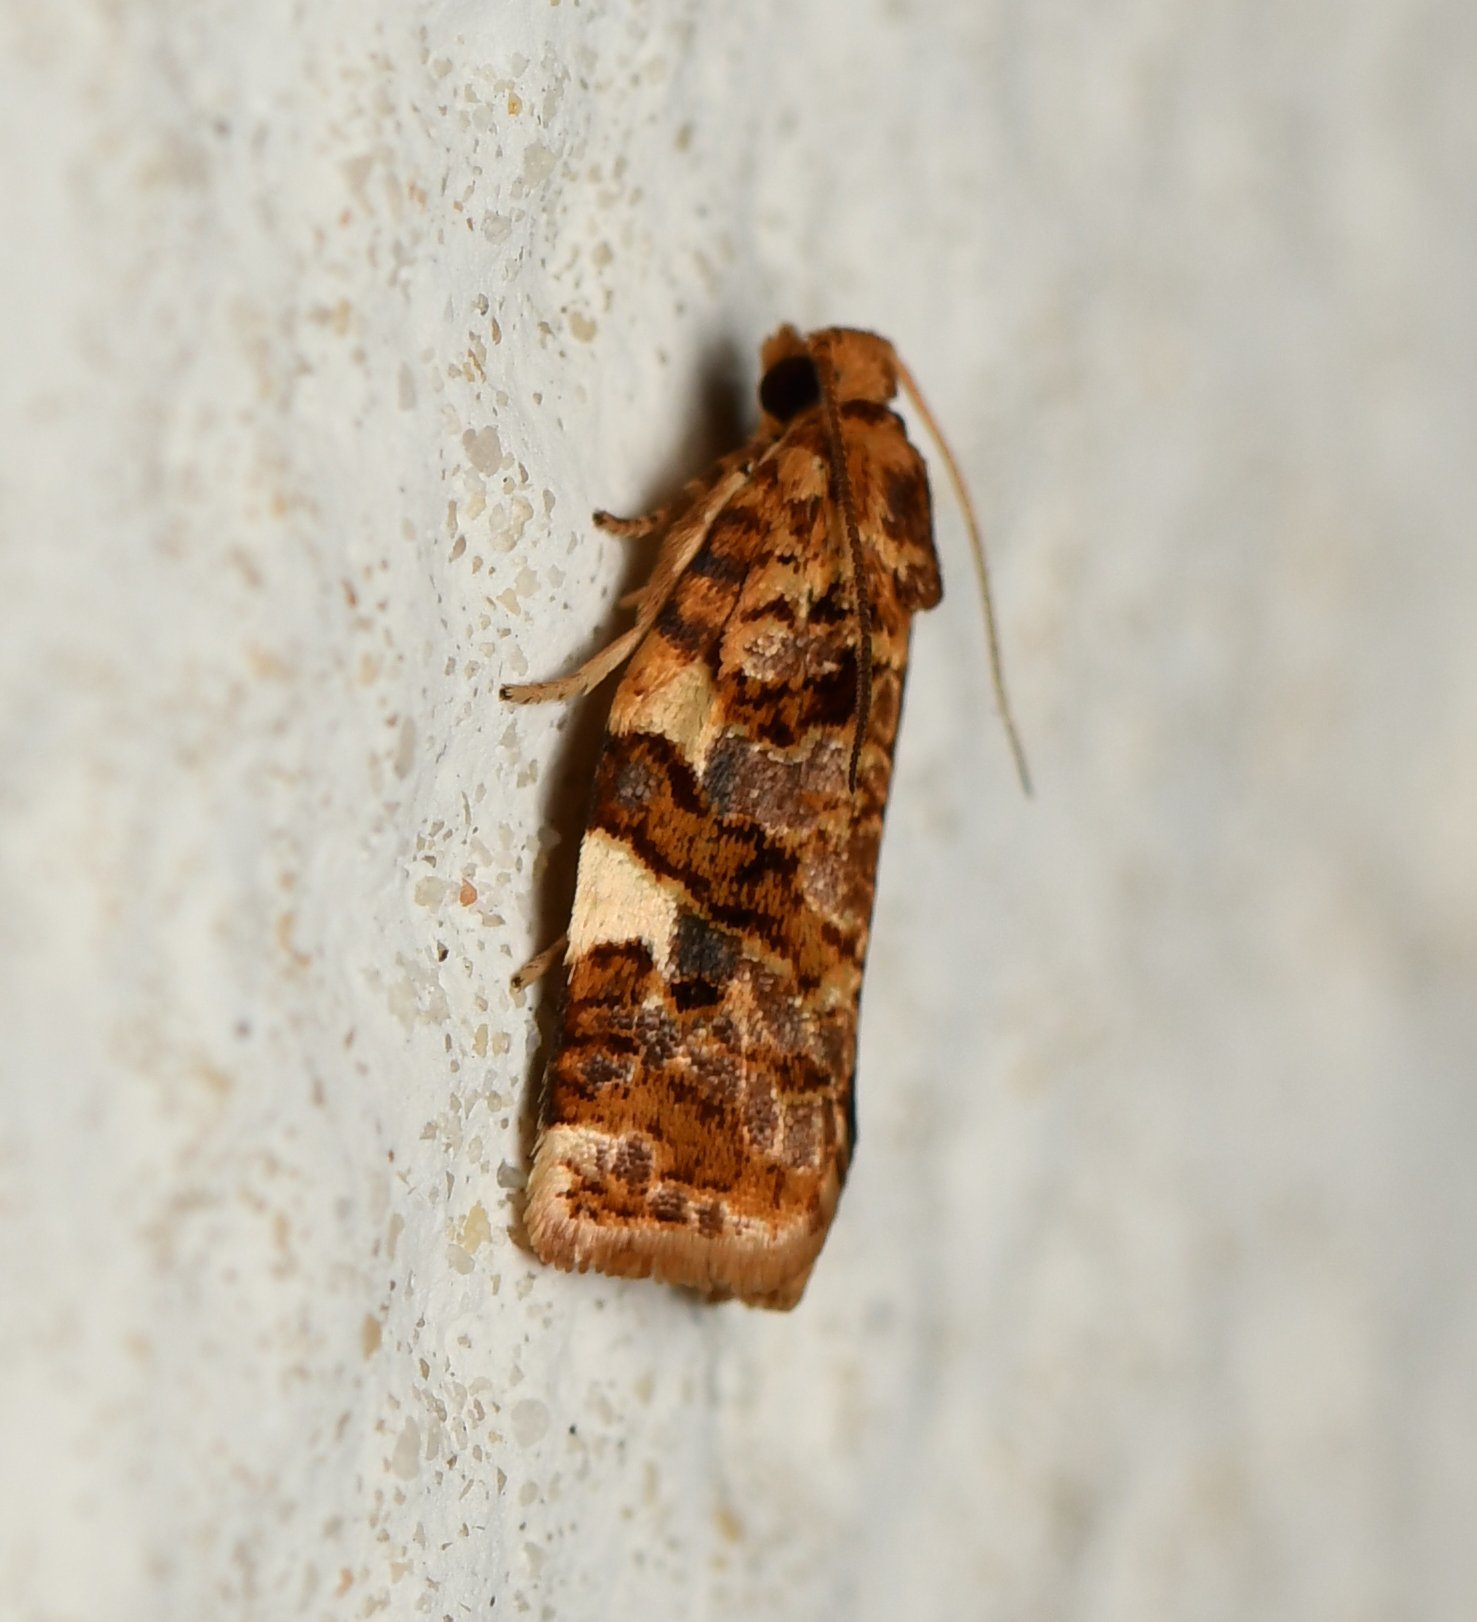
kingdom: Animalia
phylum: Arthropoda
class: Insecta
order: Lepidoptera
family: Tortricidae
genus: Archips
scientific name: Archips argyrospila
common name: Fruit-tree leafroller moth
